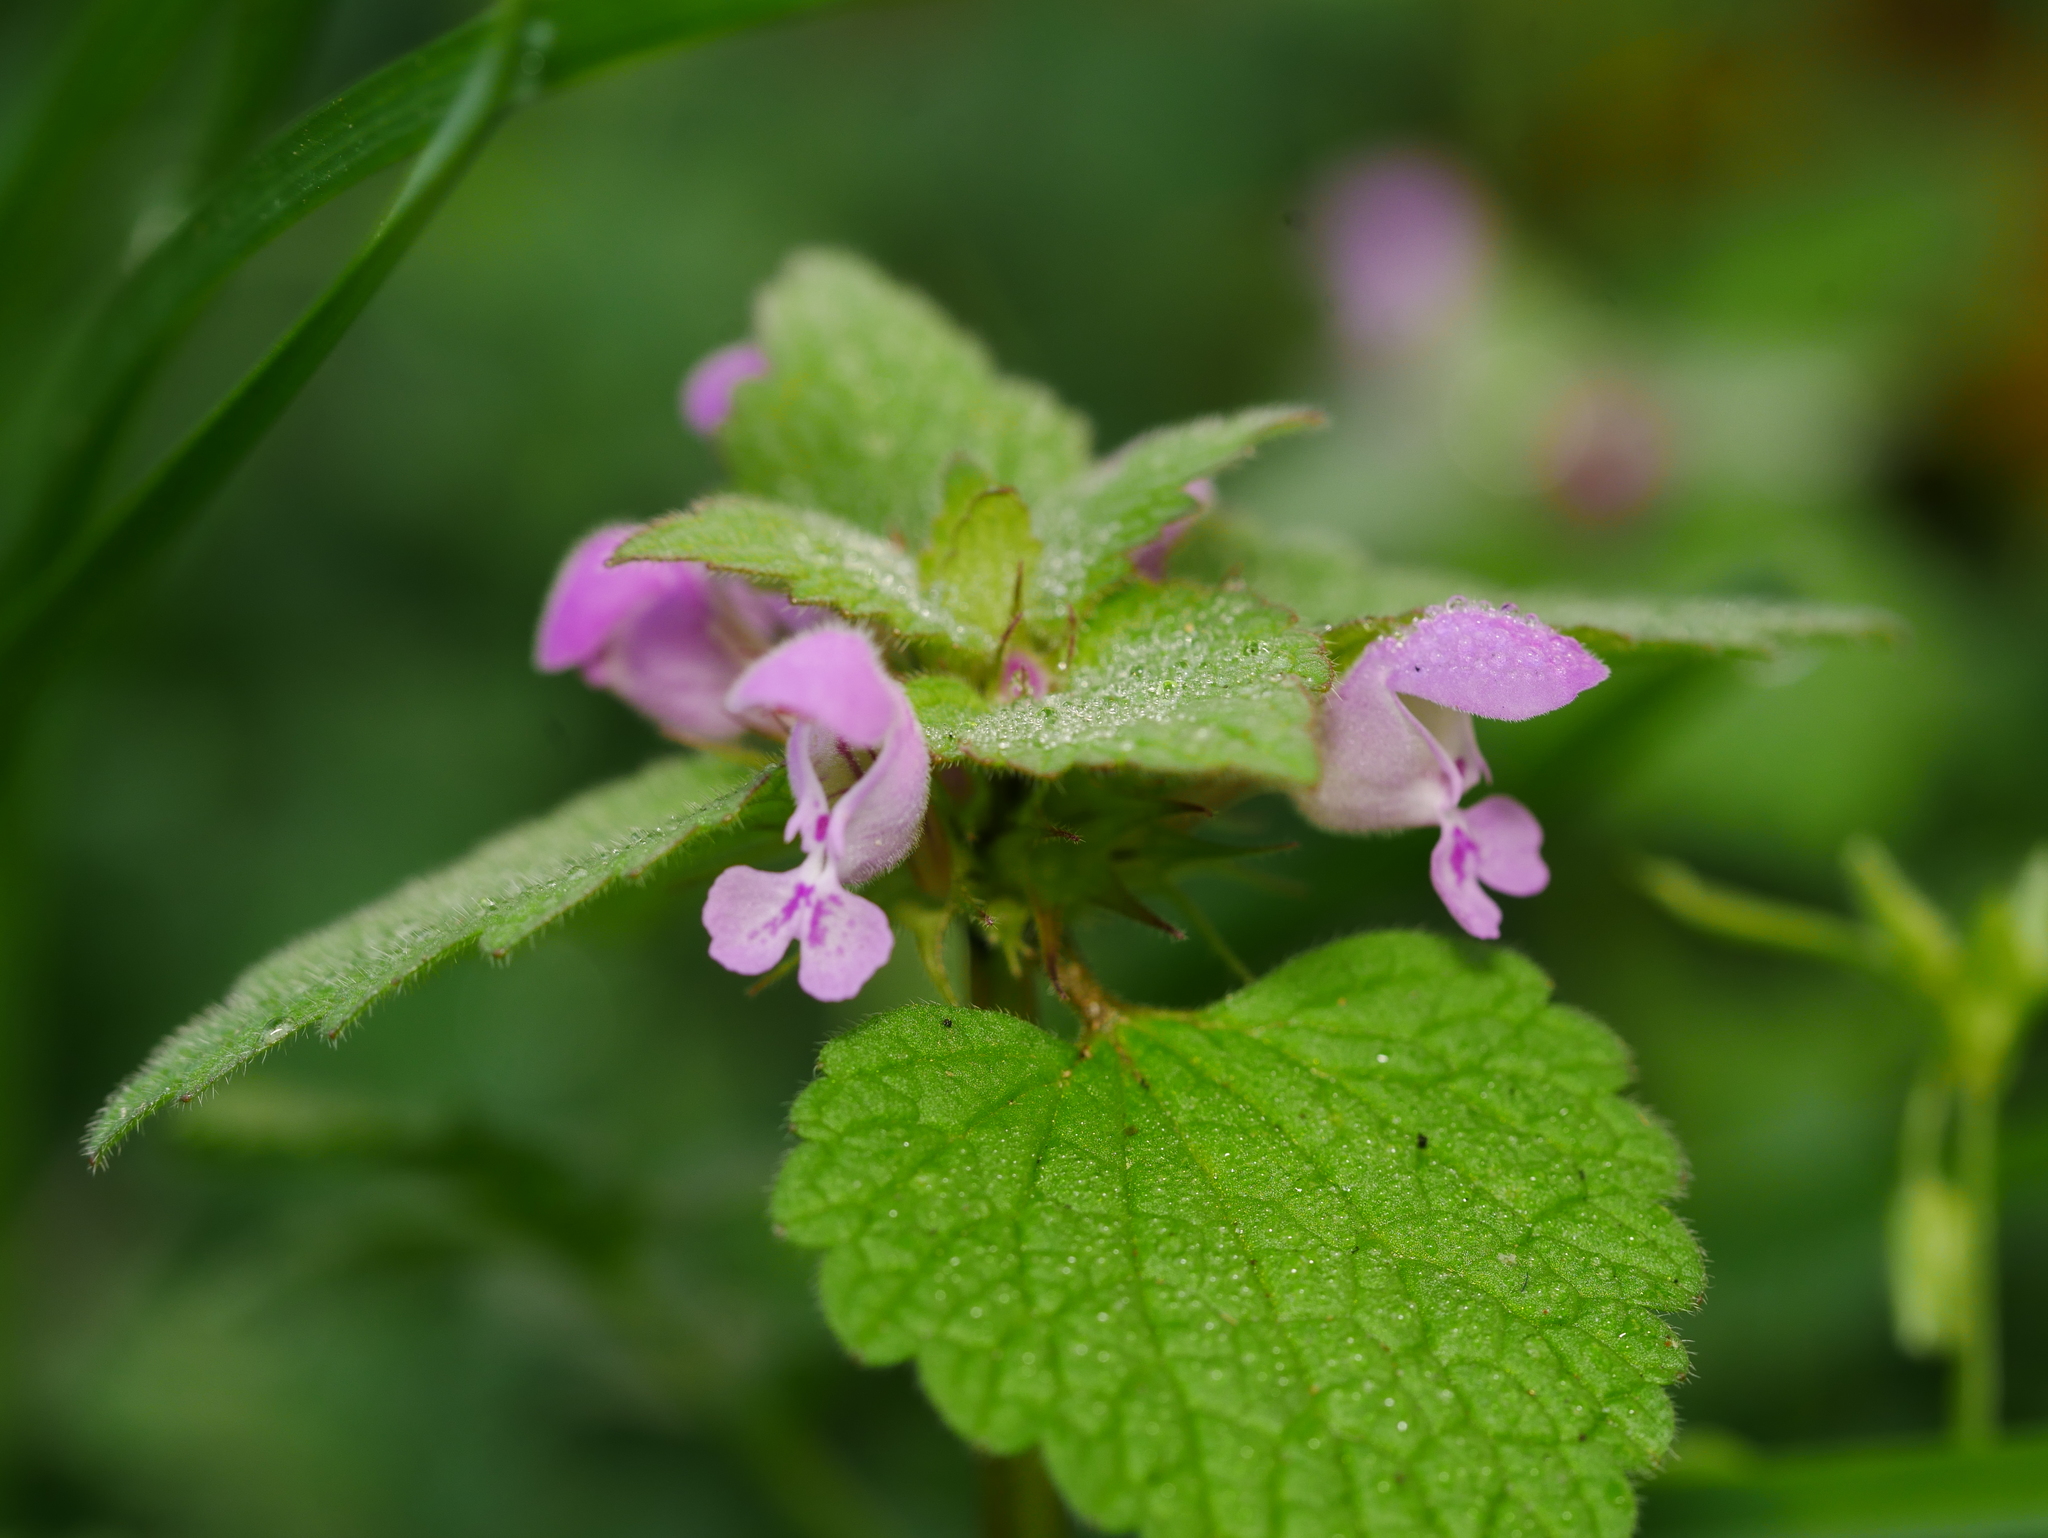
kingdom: Plantae
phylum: Tracheophyta
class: Magnoliopsida
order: Lamiales
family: Lamiaceae
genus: Lamium
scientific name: Lamium purpureum
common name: Red dead-nettle
